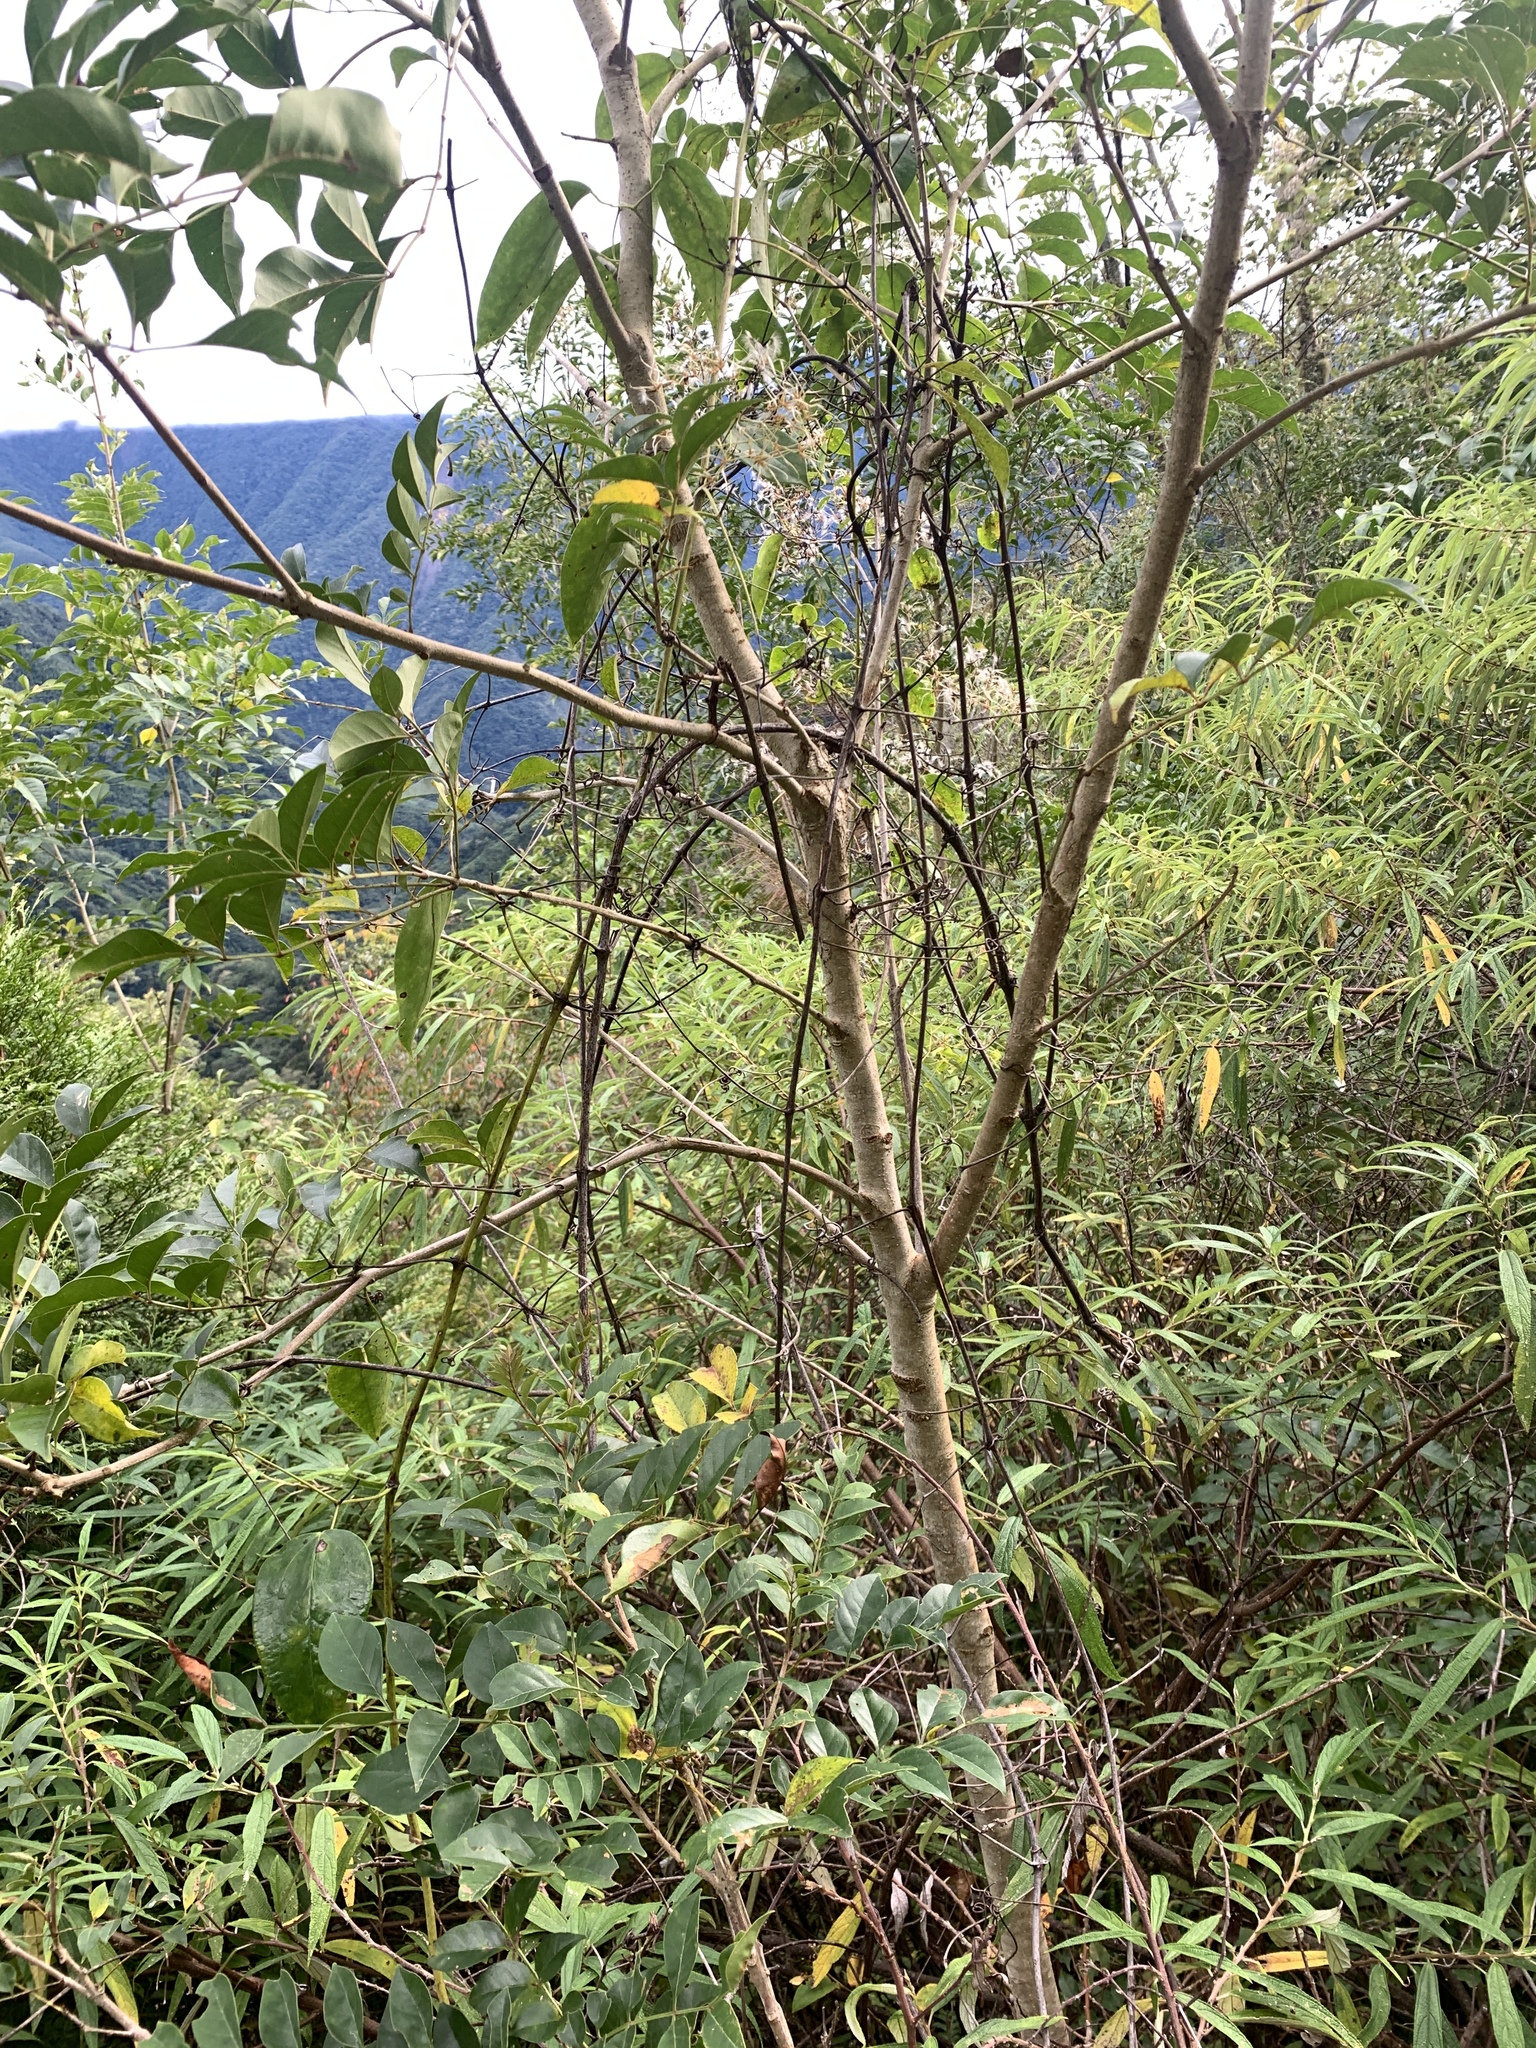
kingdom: Plantae
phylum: Tracheophyta
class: Magnoliopsida
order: Lamiales
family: Oleaceae
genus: Fraxinus
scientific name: Fraxinus griffithii
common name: Himalayan ash
